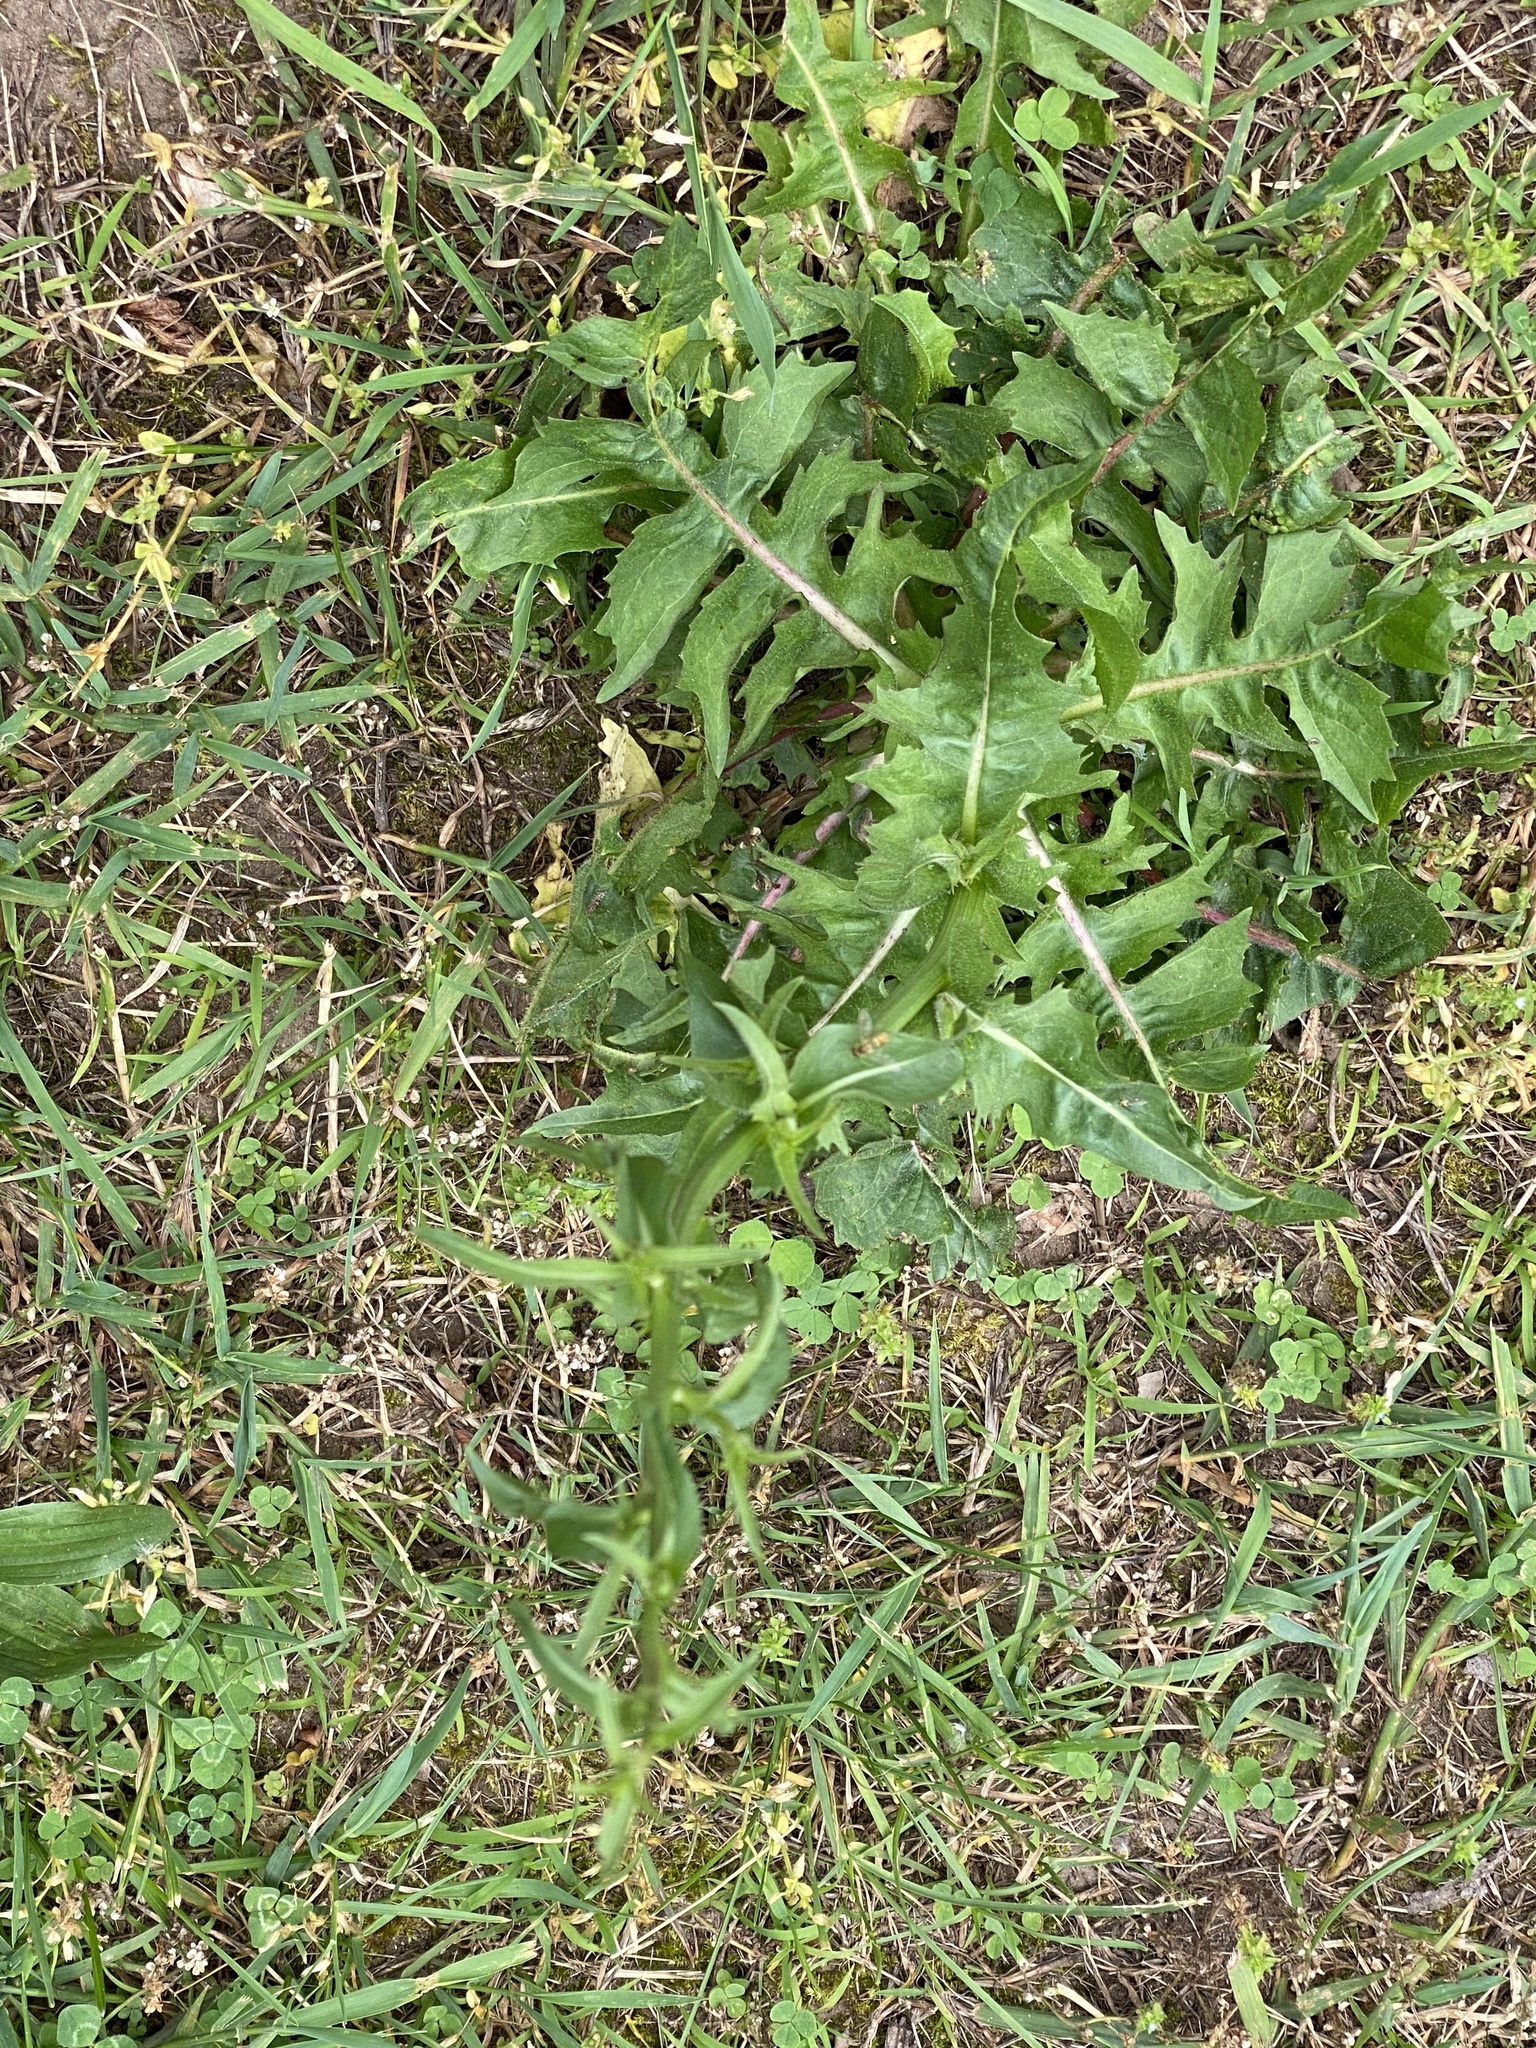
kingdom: Plantae
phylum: Tracheophyta
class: Magnoliopsida
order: Asterales
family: Asteraceae
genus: Cichorium
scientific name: Cichorium intybus
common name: Chicory
